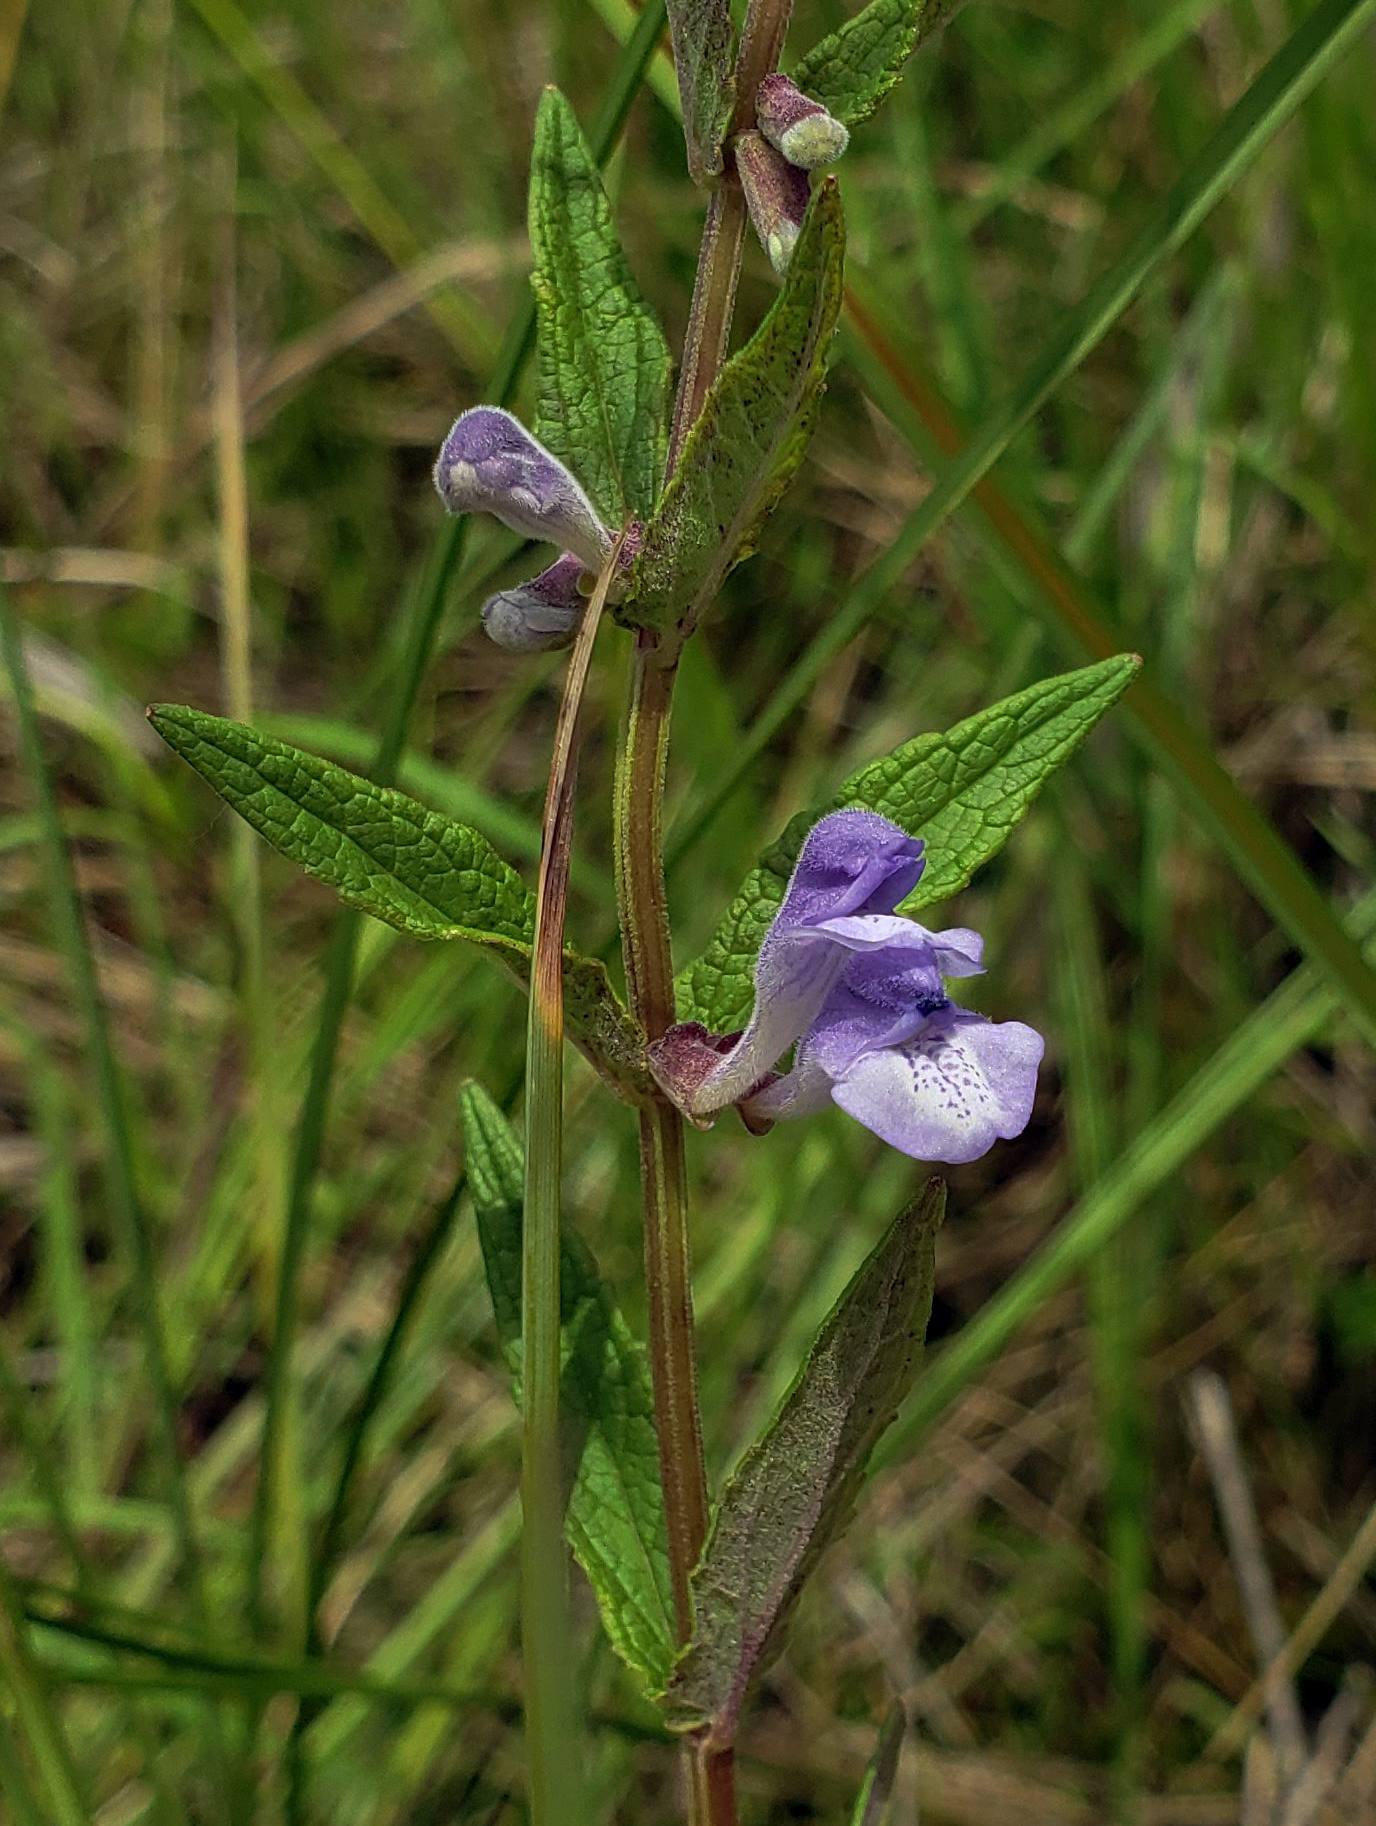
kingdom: Plantae
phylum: Tracheophyta
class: Magnoliopsida
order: Lamiales
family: Lamiaceae
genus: Scutellaria
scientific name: Scutellaria galericulata
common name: Skullcap
